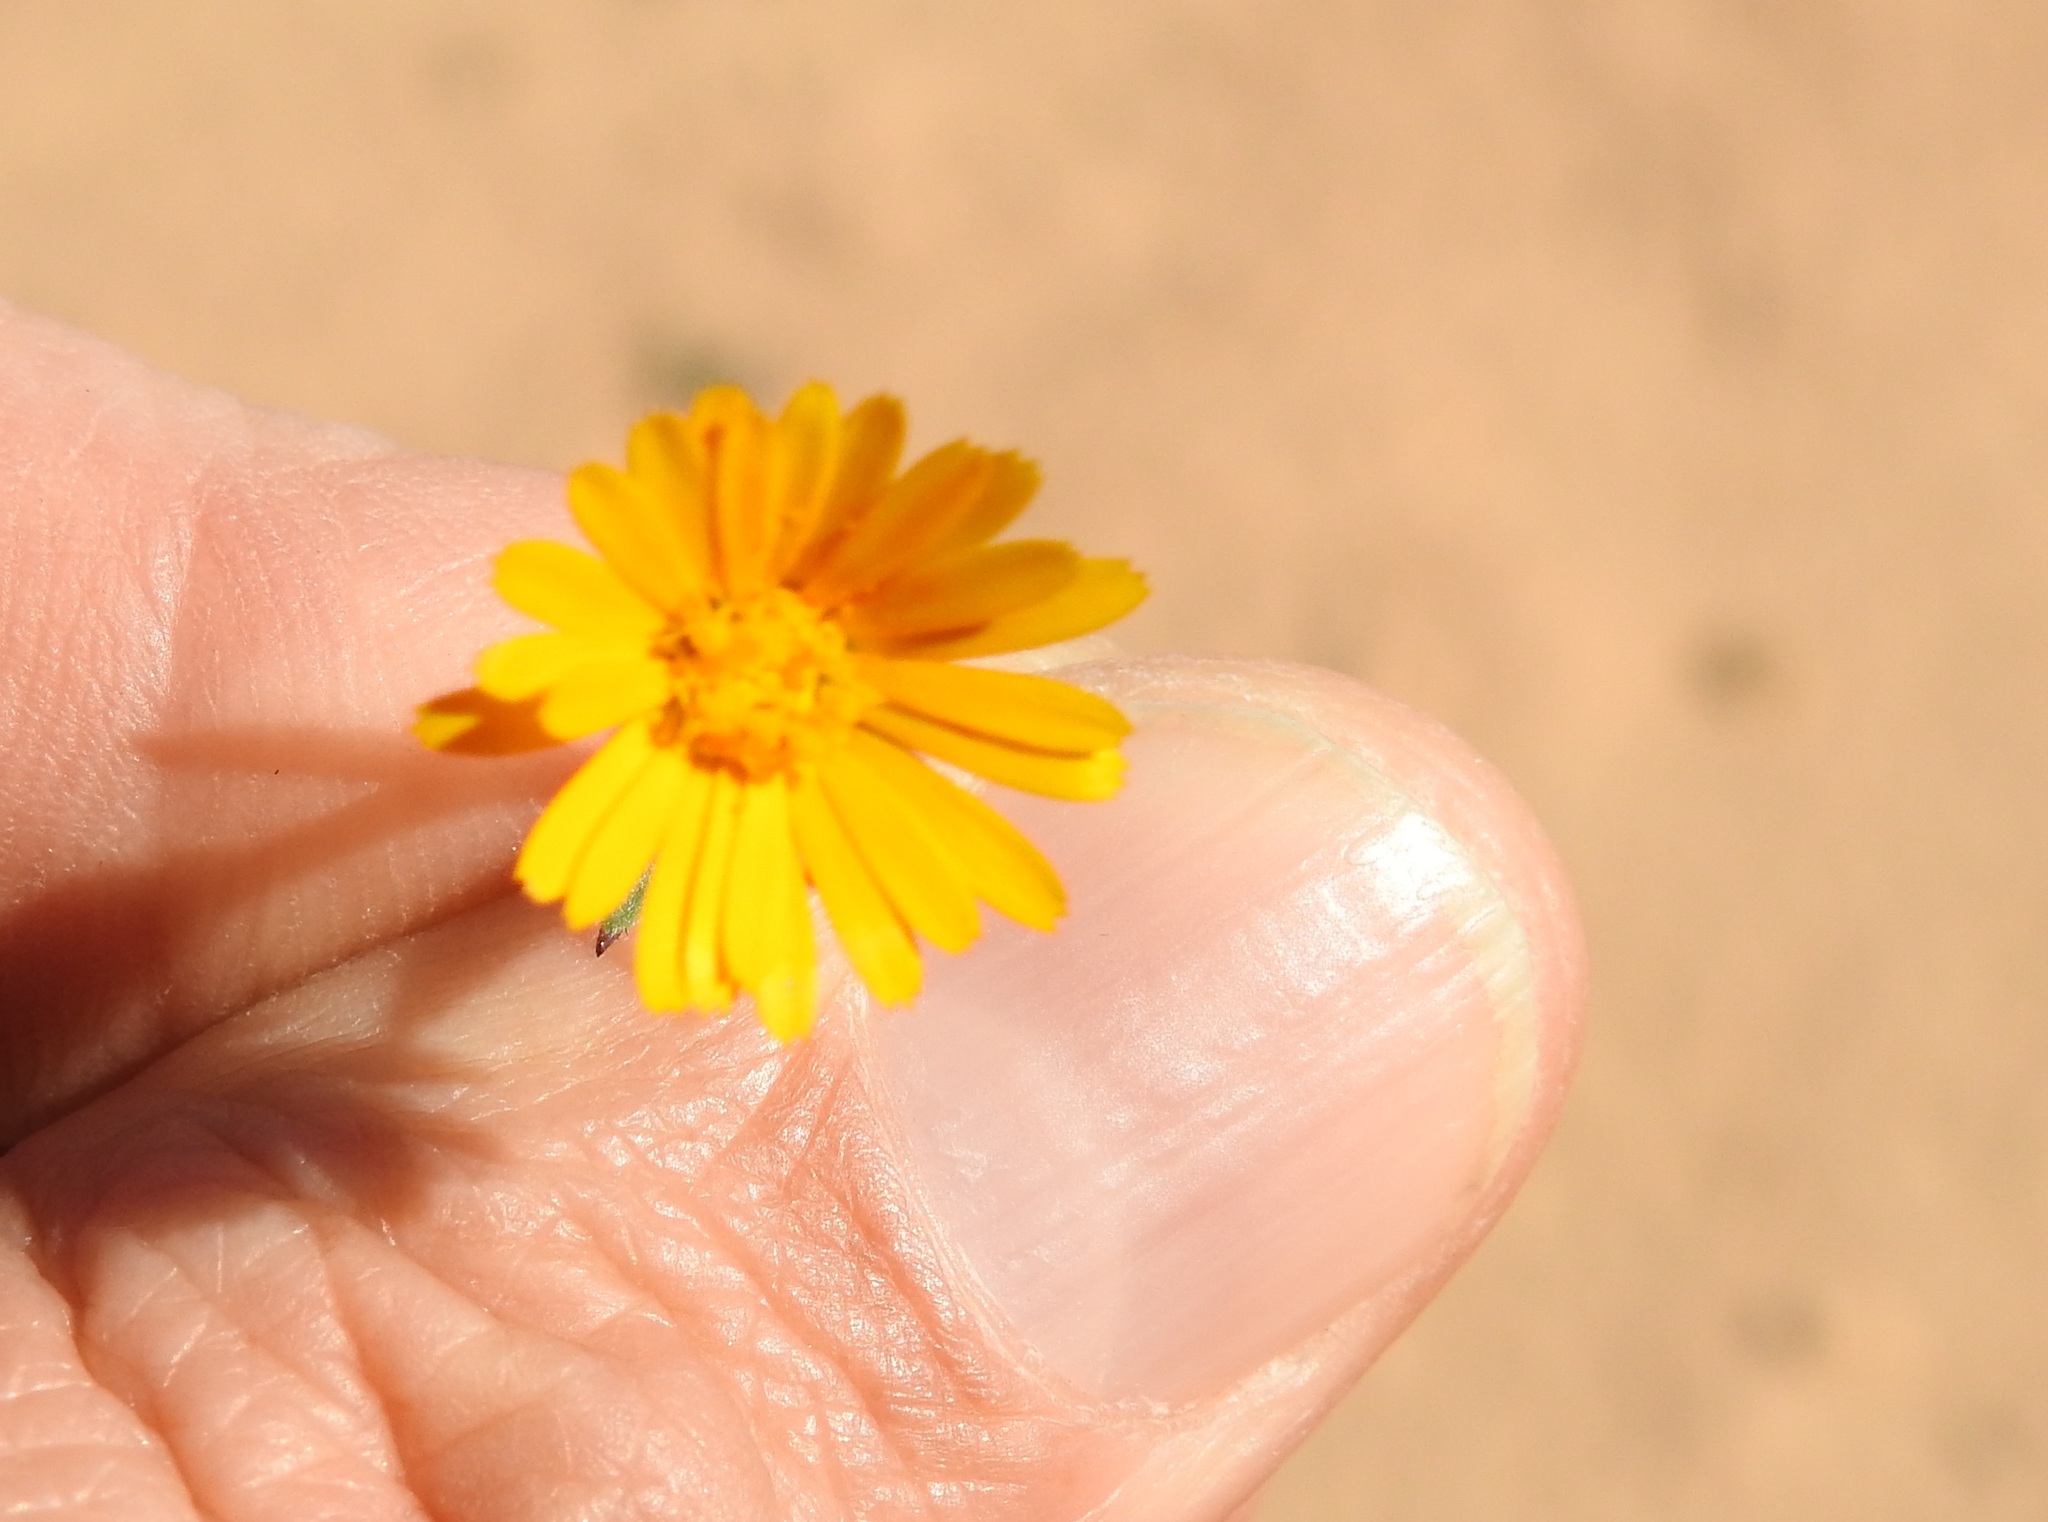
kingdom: Plantae
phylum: Tracheophyta
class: Magnoliopsida
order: Asterales
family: Asteraceae
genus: Calendula
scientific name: Calendula tripterocarpa
